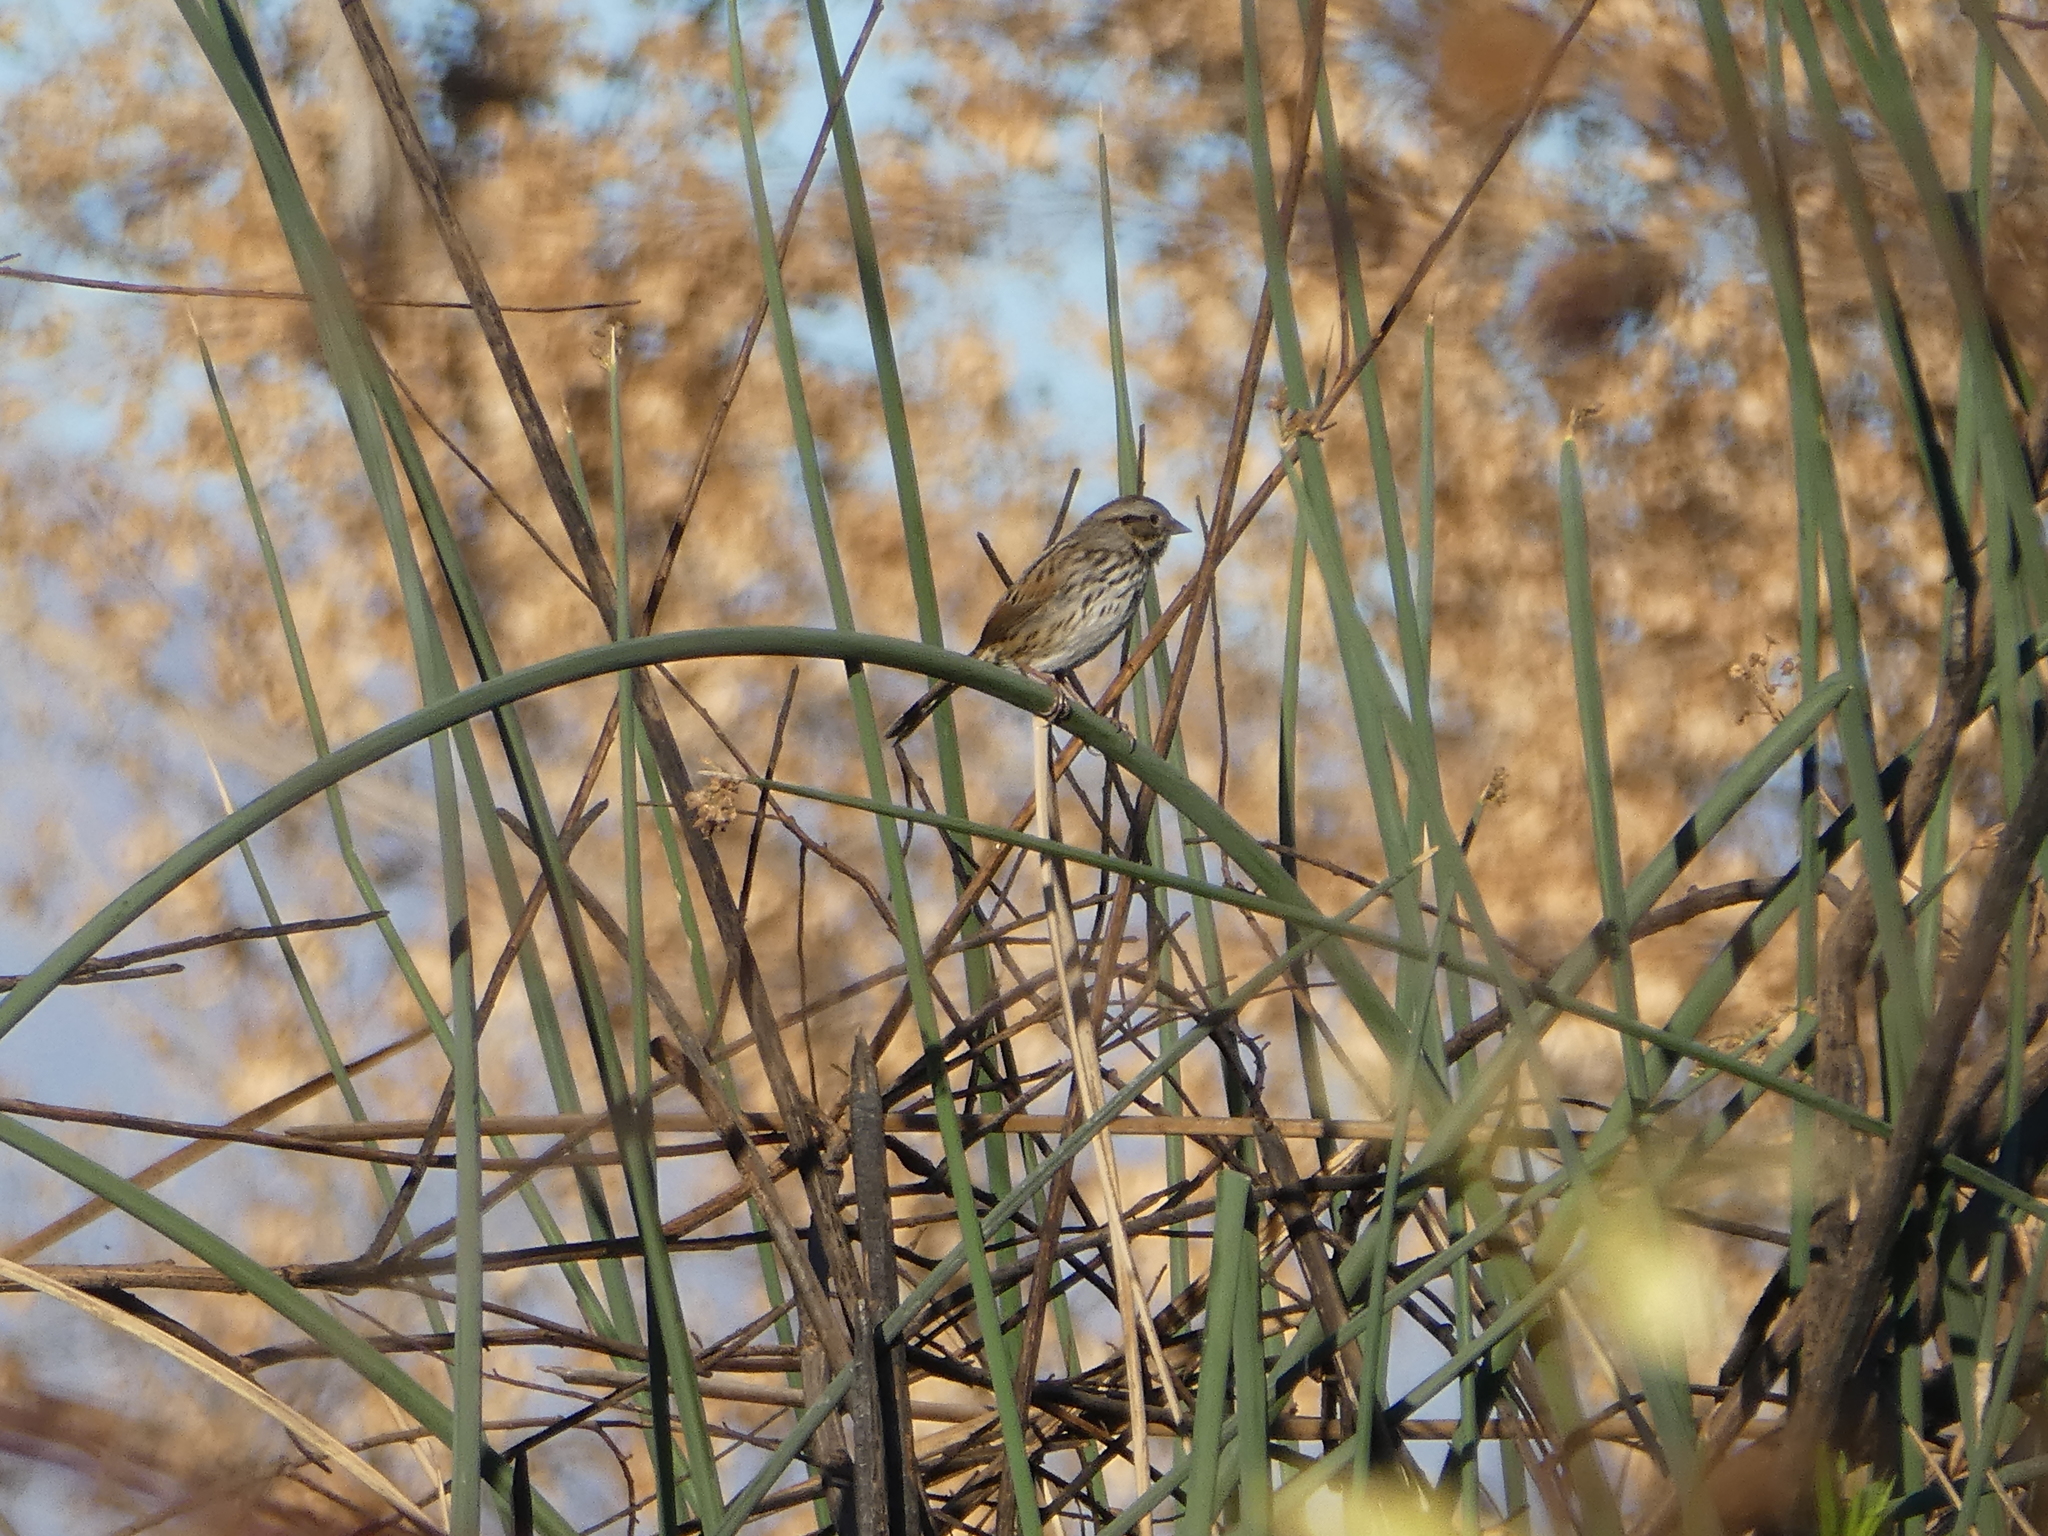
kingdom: Animalia
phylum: Chordata
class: Aves
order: Passeriformes
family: Passerellidae
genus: Melospiza
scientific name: Melospiza melodia
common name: Song sparrow
